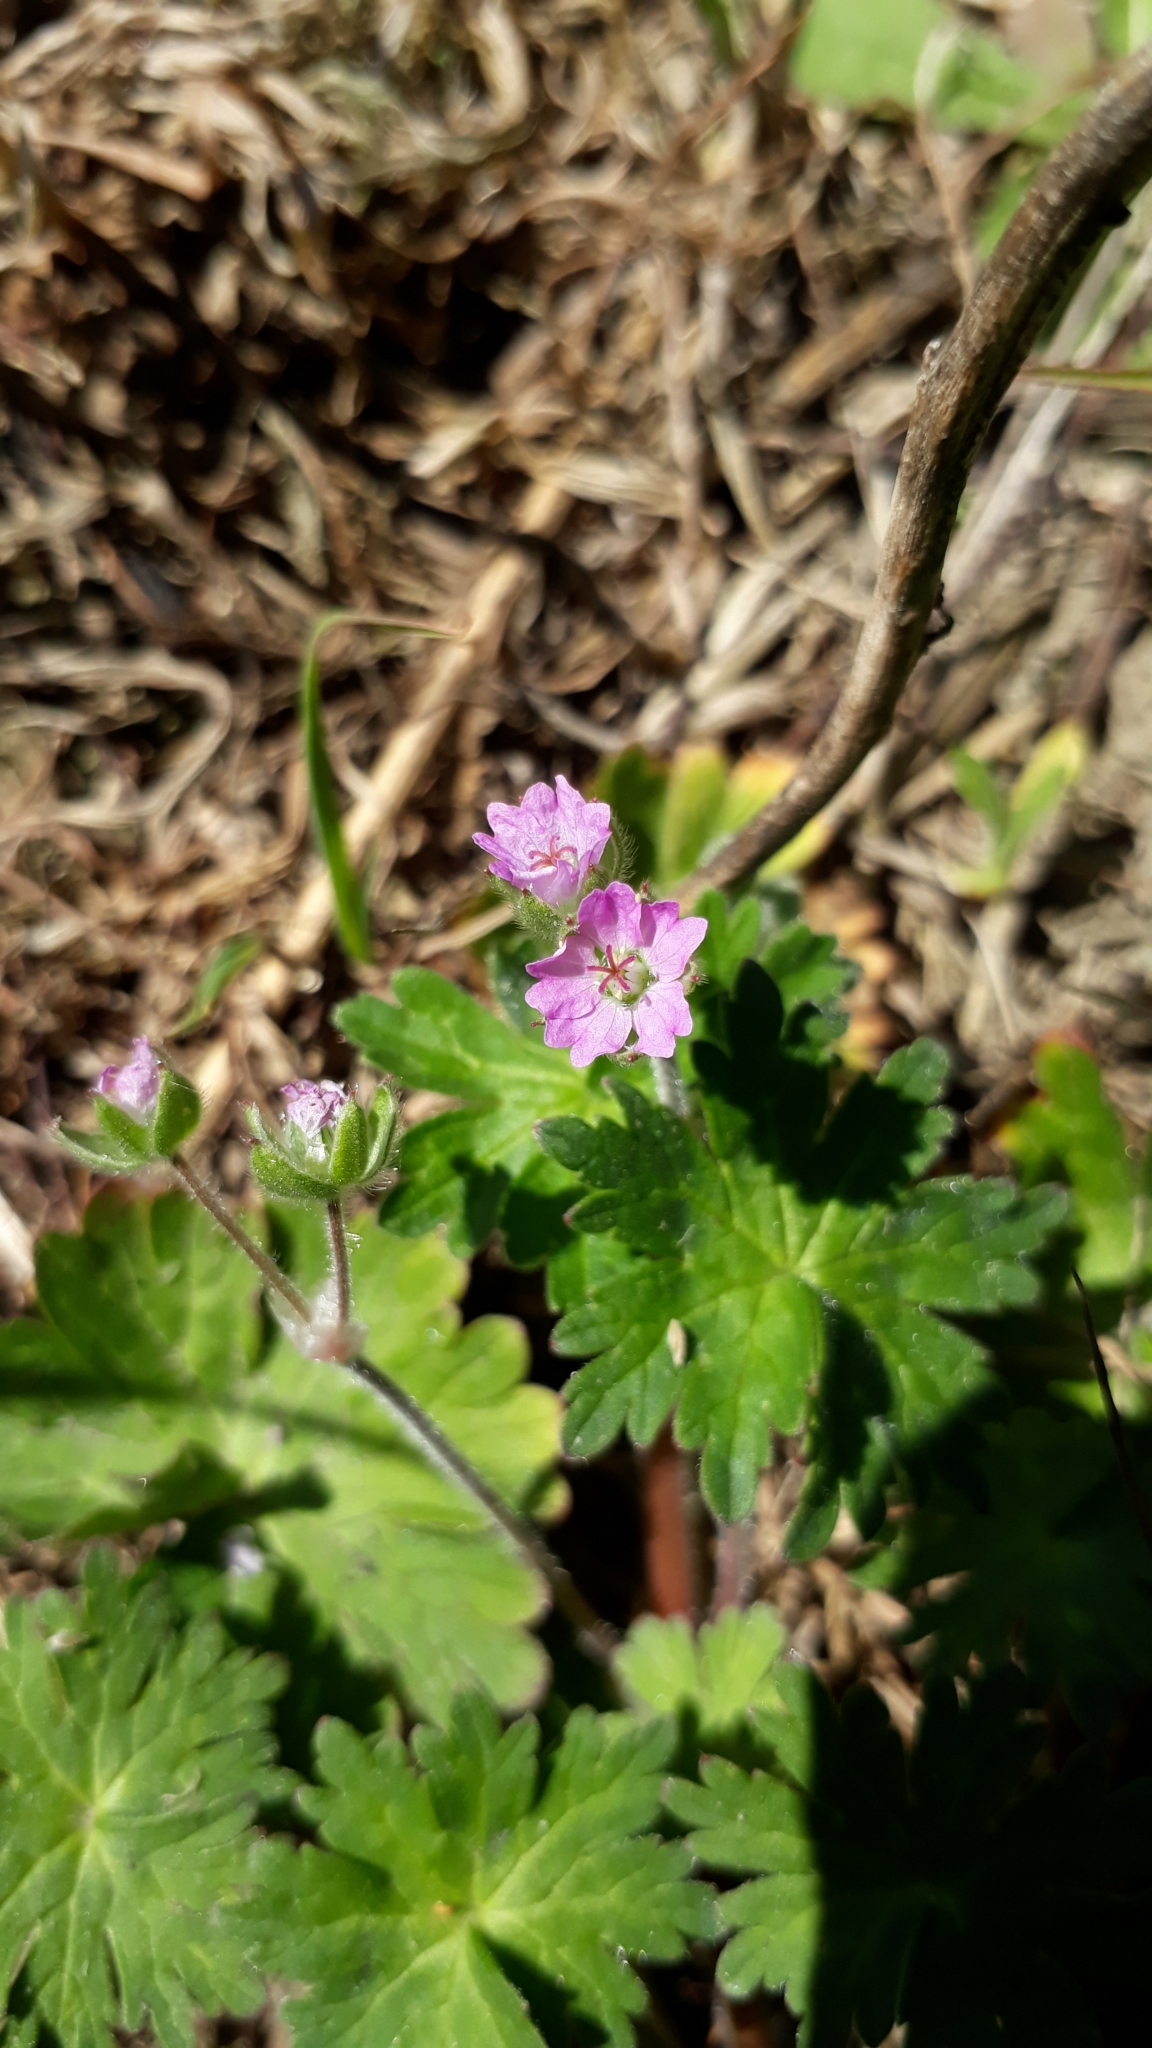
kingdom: Plantae
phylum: Tracheophyta
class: Magnoliopsida
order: Geraniales
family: Geraniaceae
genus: Geranium
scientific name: Geranium molle
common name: Dove's-foot crane's-bill
